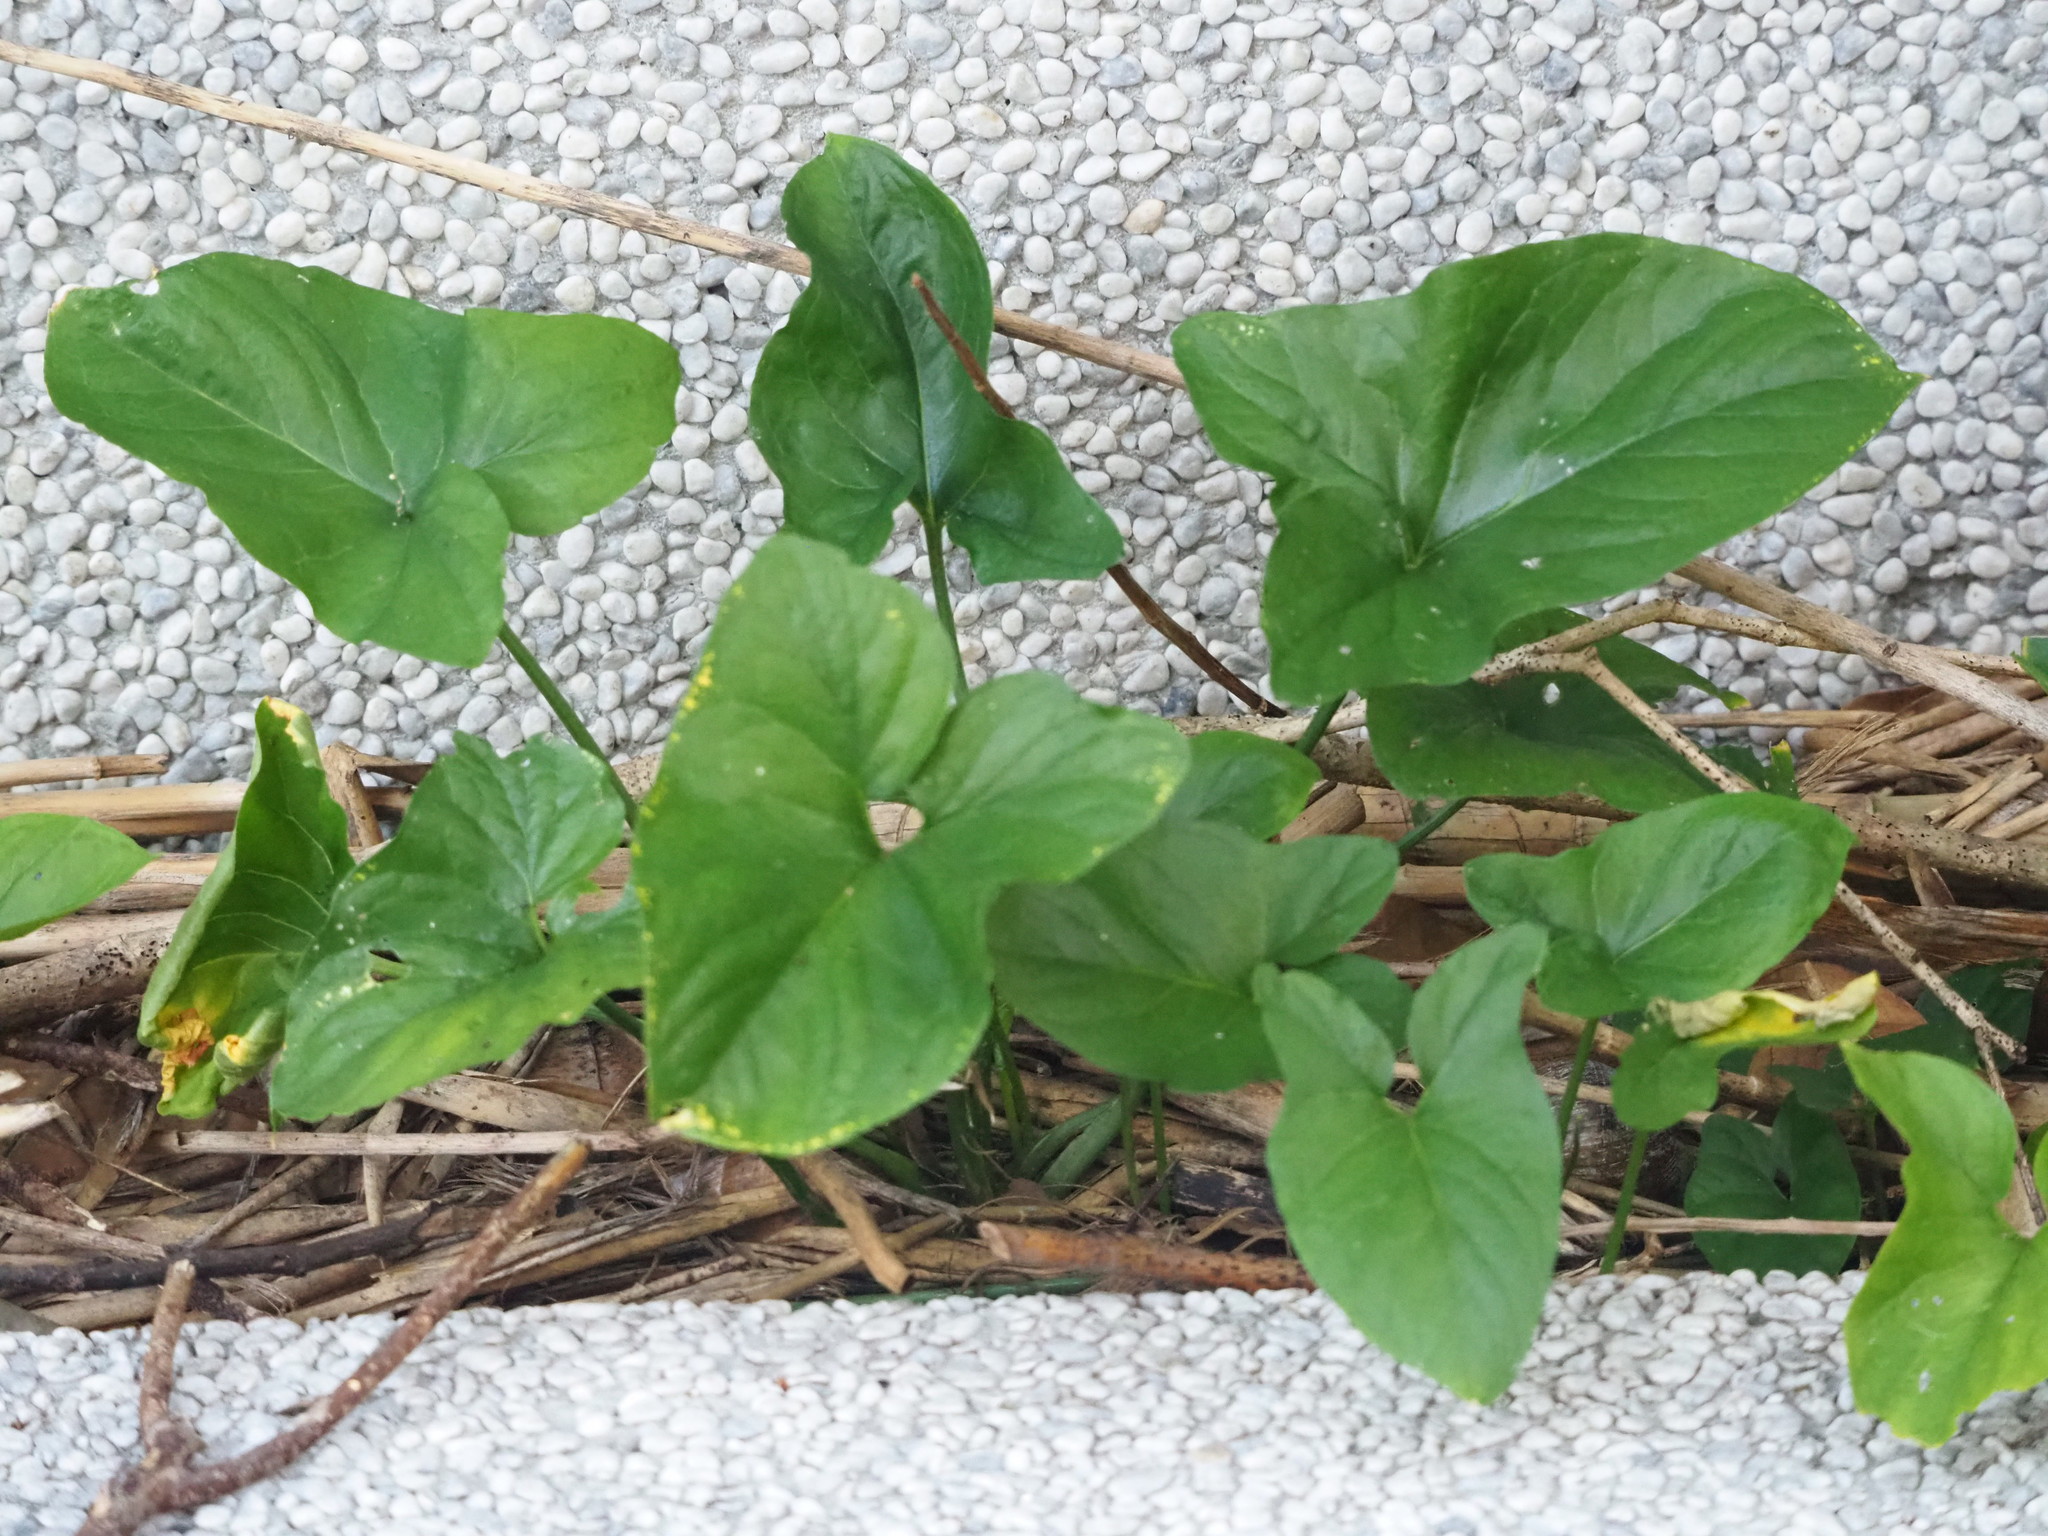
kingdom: Plantae
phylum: Tracheophyta
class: Liliopsida
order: Alismatales
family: Araceae
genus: Typhonium
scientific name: Typhonium roxburghii
